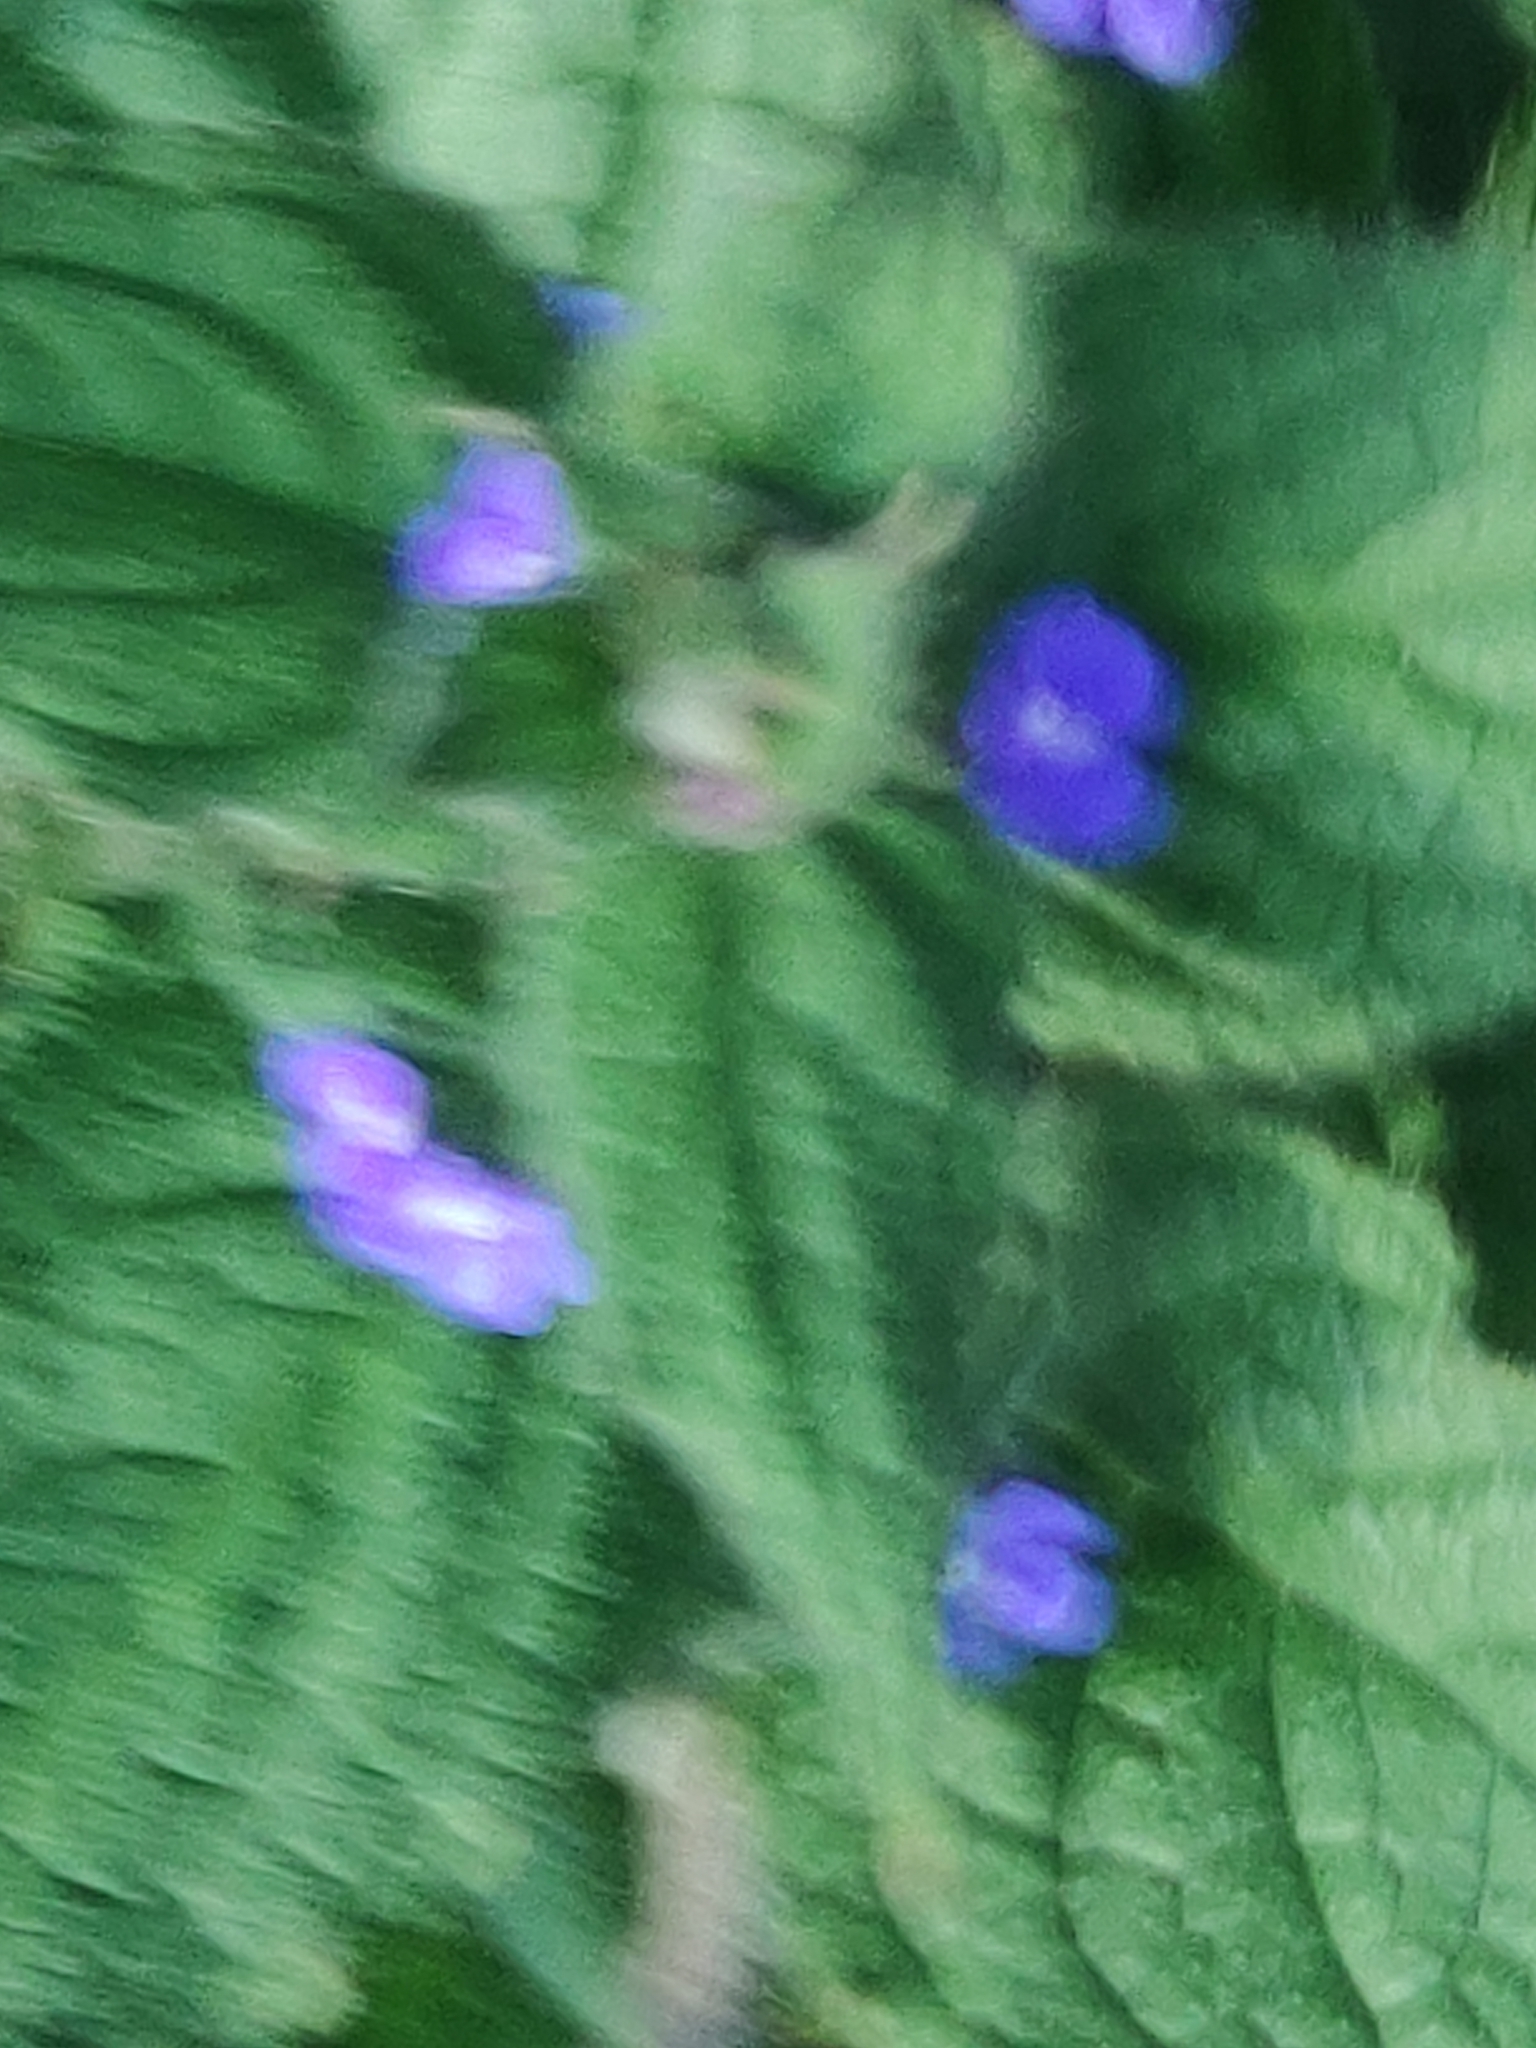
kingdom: Plantae
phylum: Tracheophyta
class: Magnoliopsida
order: Boraginales
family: Boraginaceae
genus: Pentaglottis
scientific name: Pentaglottis sempervirens
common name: Green alkanet
